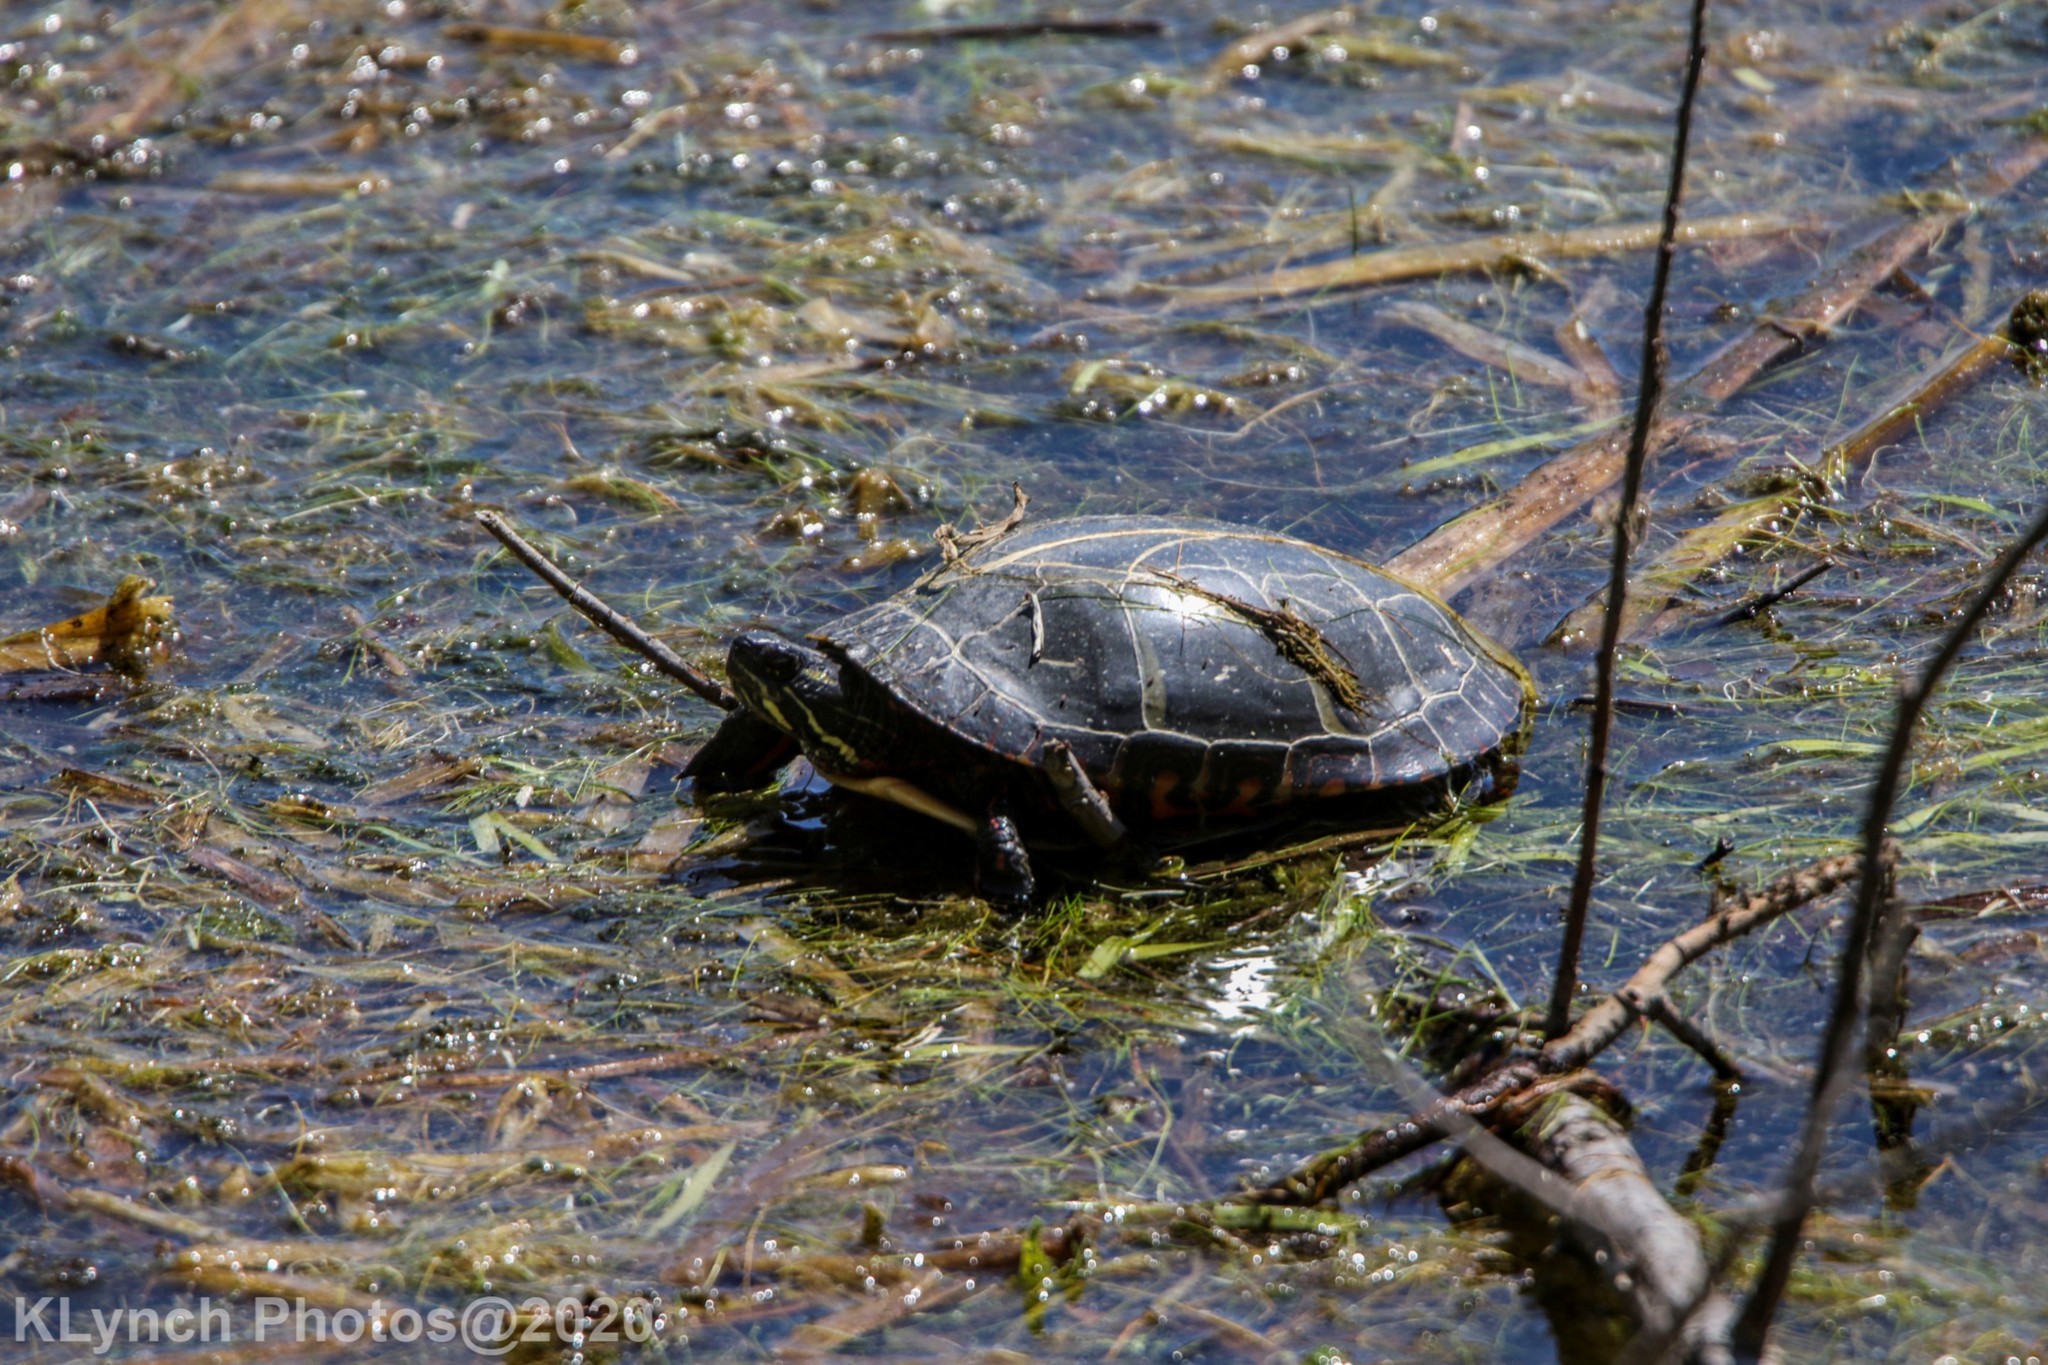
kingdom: Animalia
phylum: Chordata
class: Testudines
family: Emydidae
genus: Chrysemys
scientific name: Chrysemys picta
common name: Painted turtle
